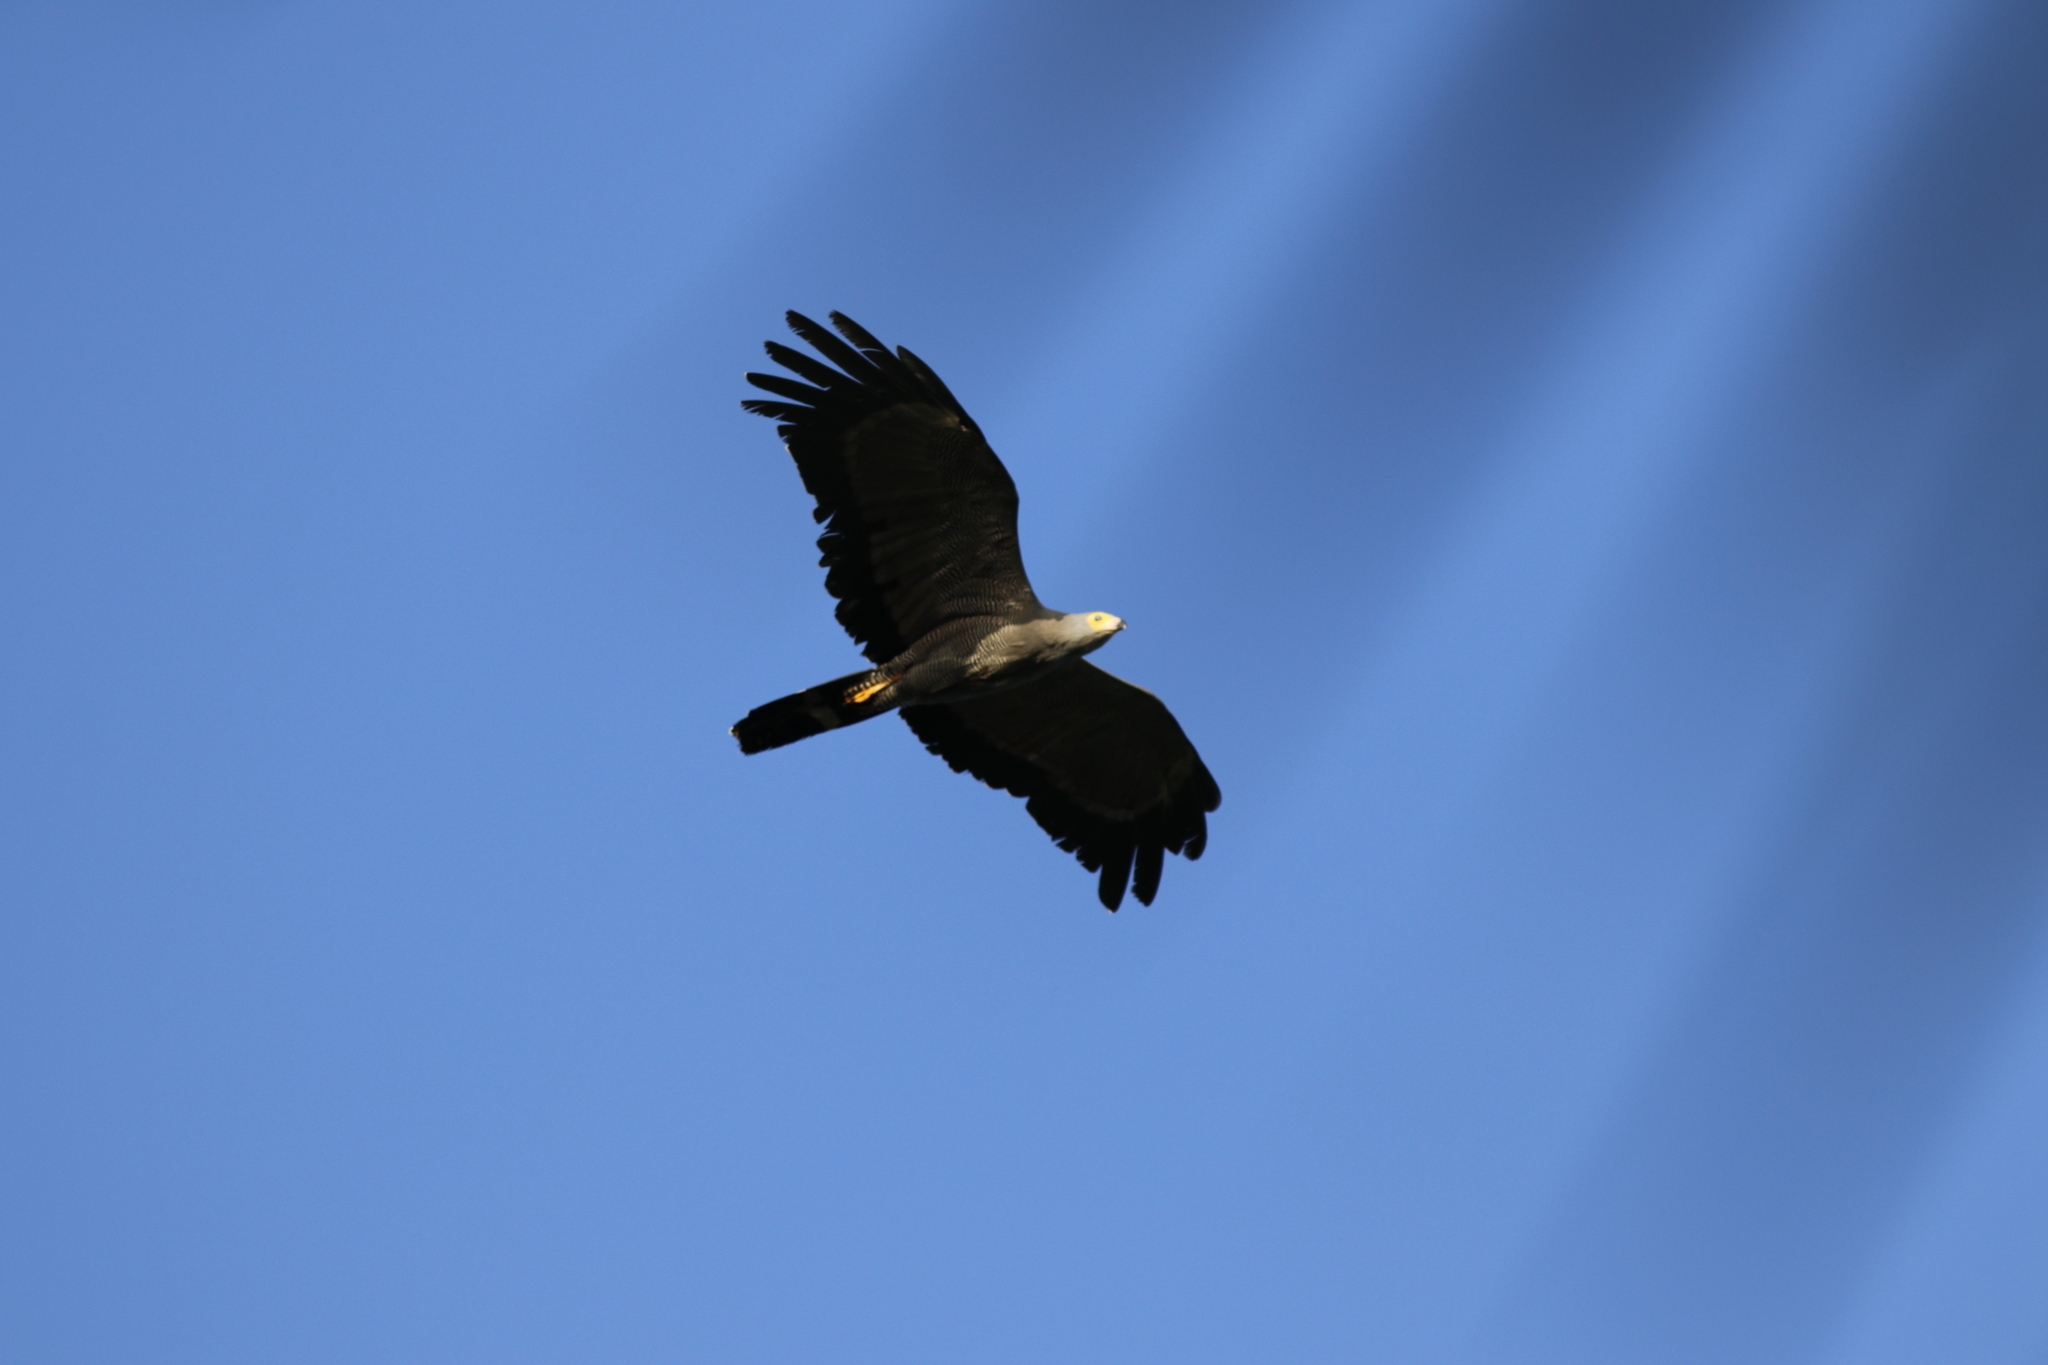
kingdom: Animalia
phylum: Chordata
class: Aves
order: Accipitriformes
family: Accipitridae
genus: Polyboroides
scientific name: Polyboroides typus
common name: African harrier-hawk
